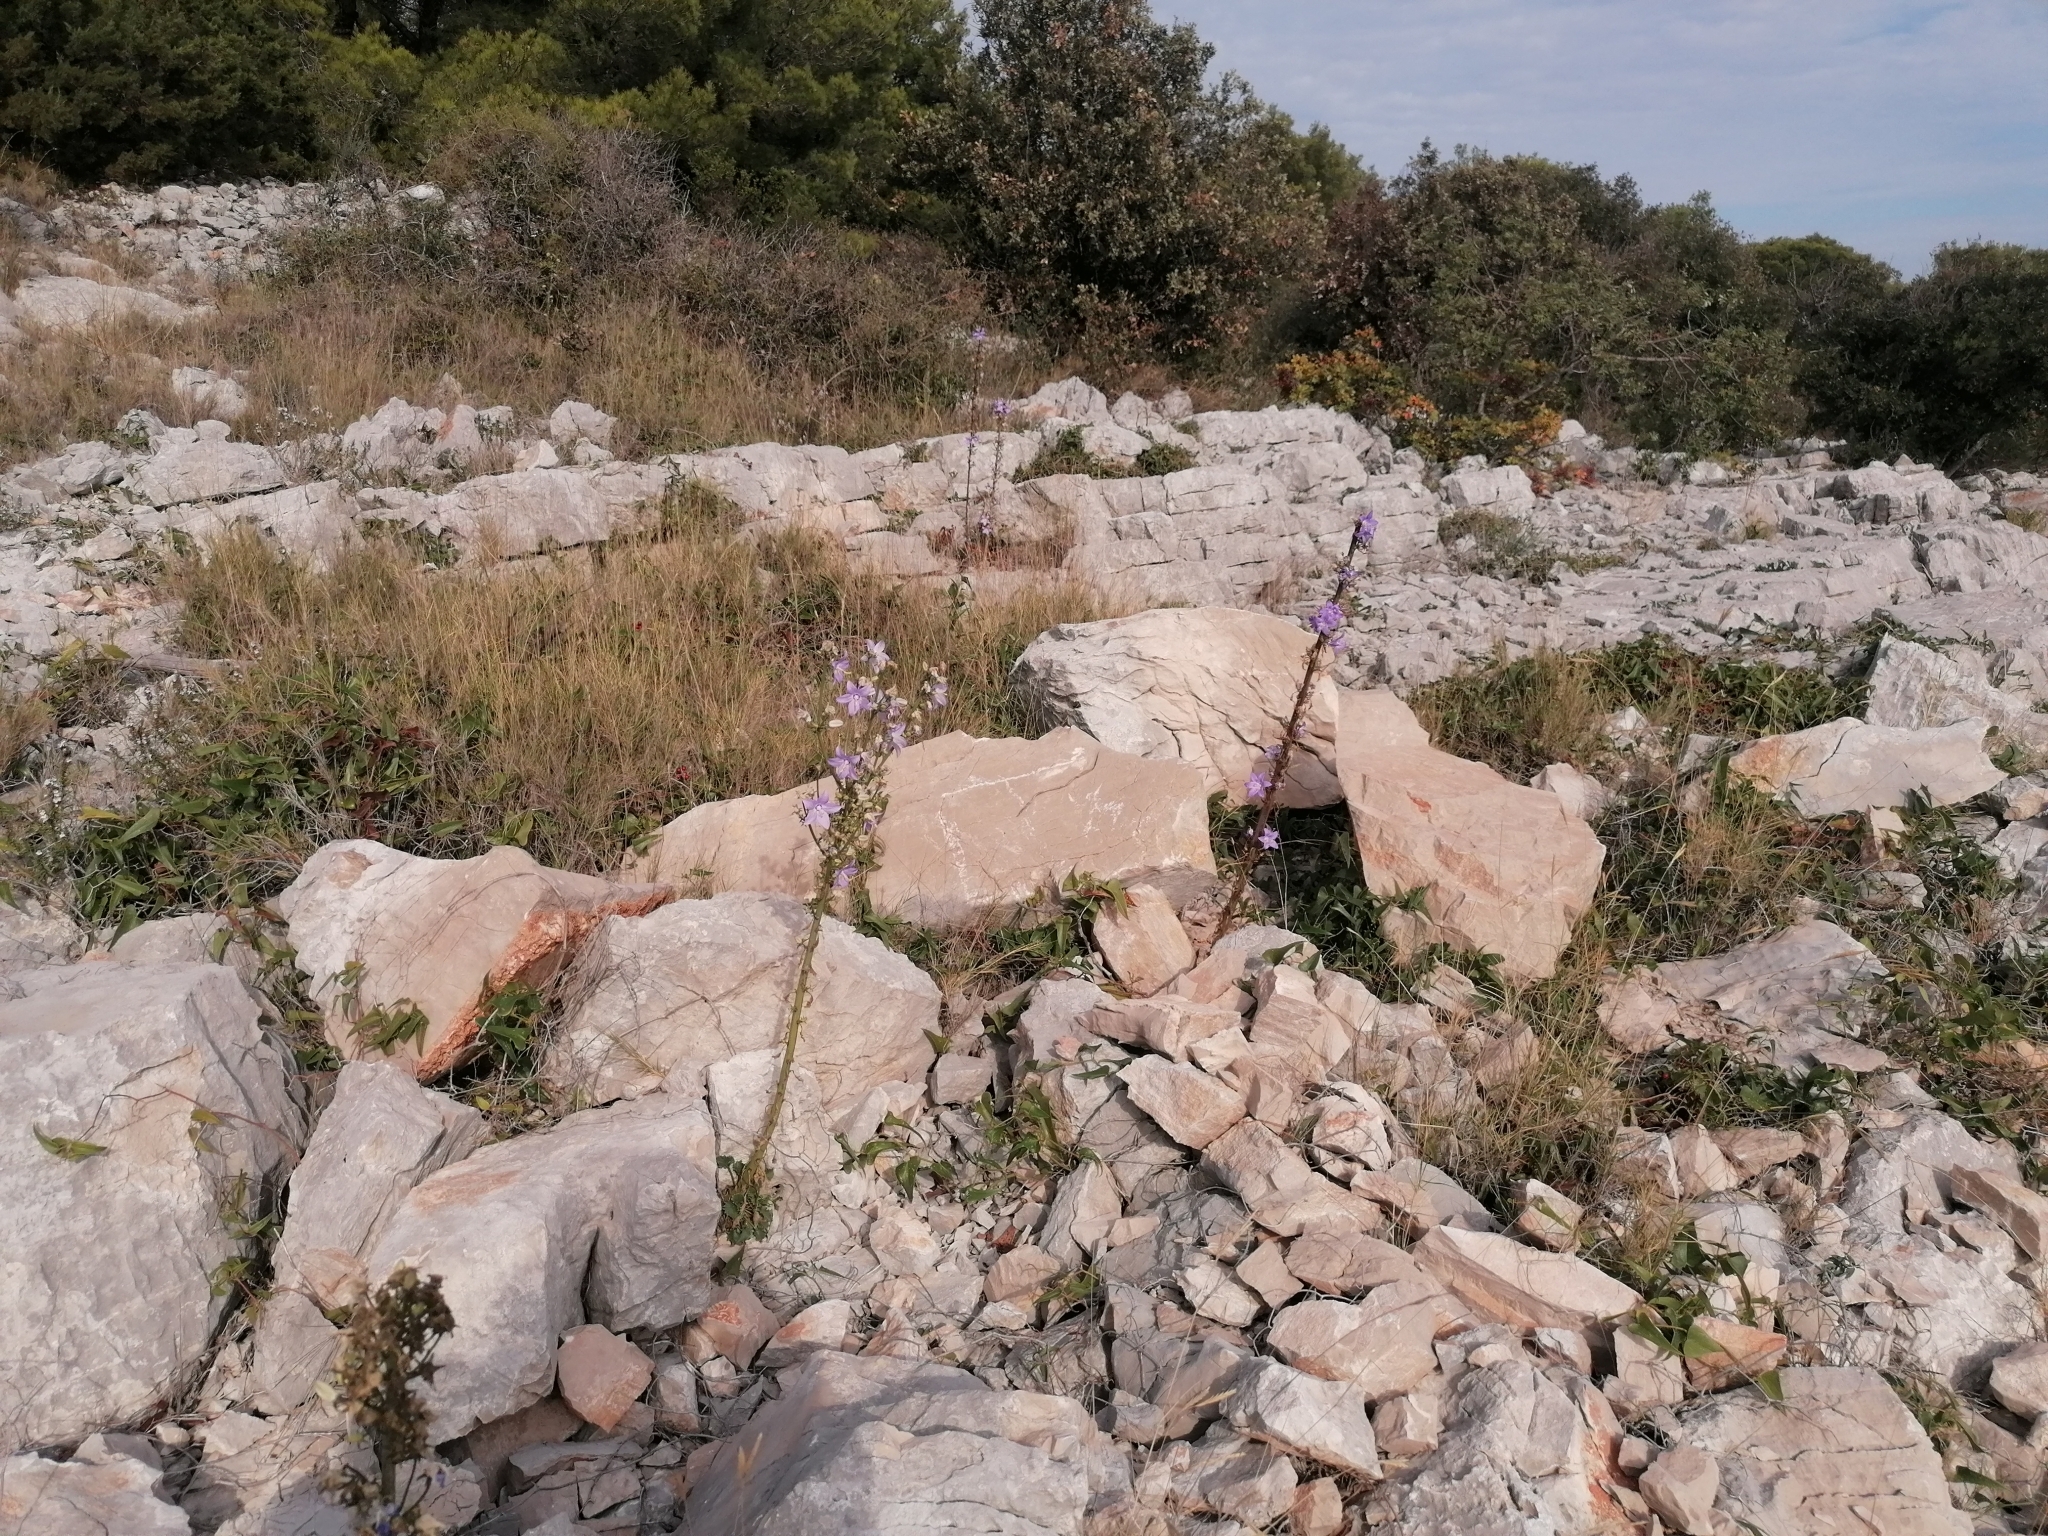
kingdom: Plantae
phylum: Tracheophyta
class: Magnoliopsida
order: Asterales
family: Campanulaceae
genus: Campanula
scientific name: Campanula pyramidalis
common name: Chimney bellflower
